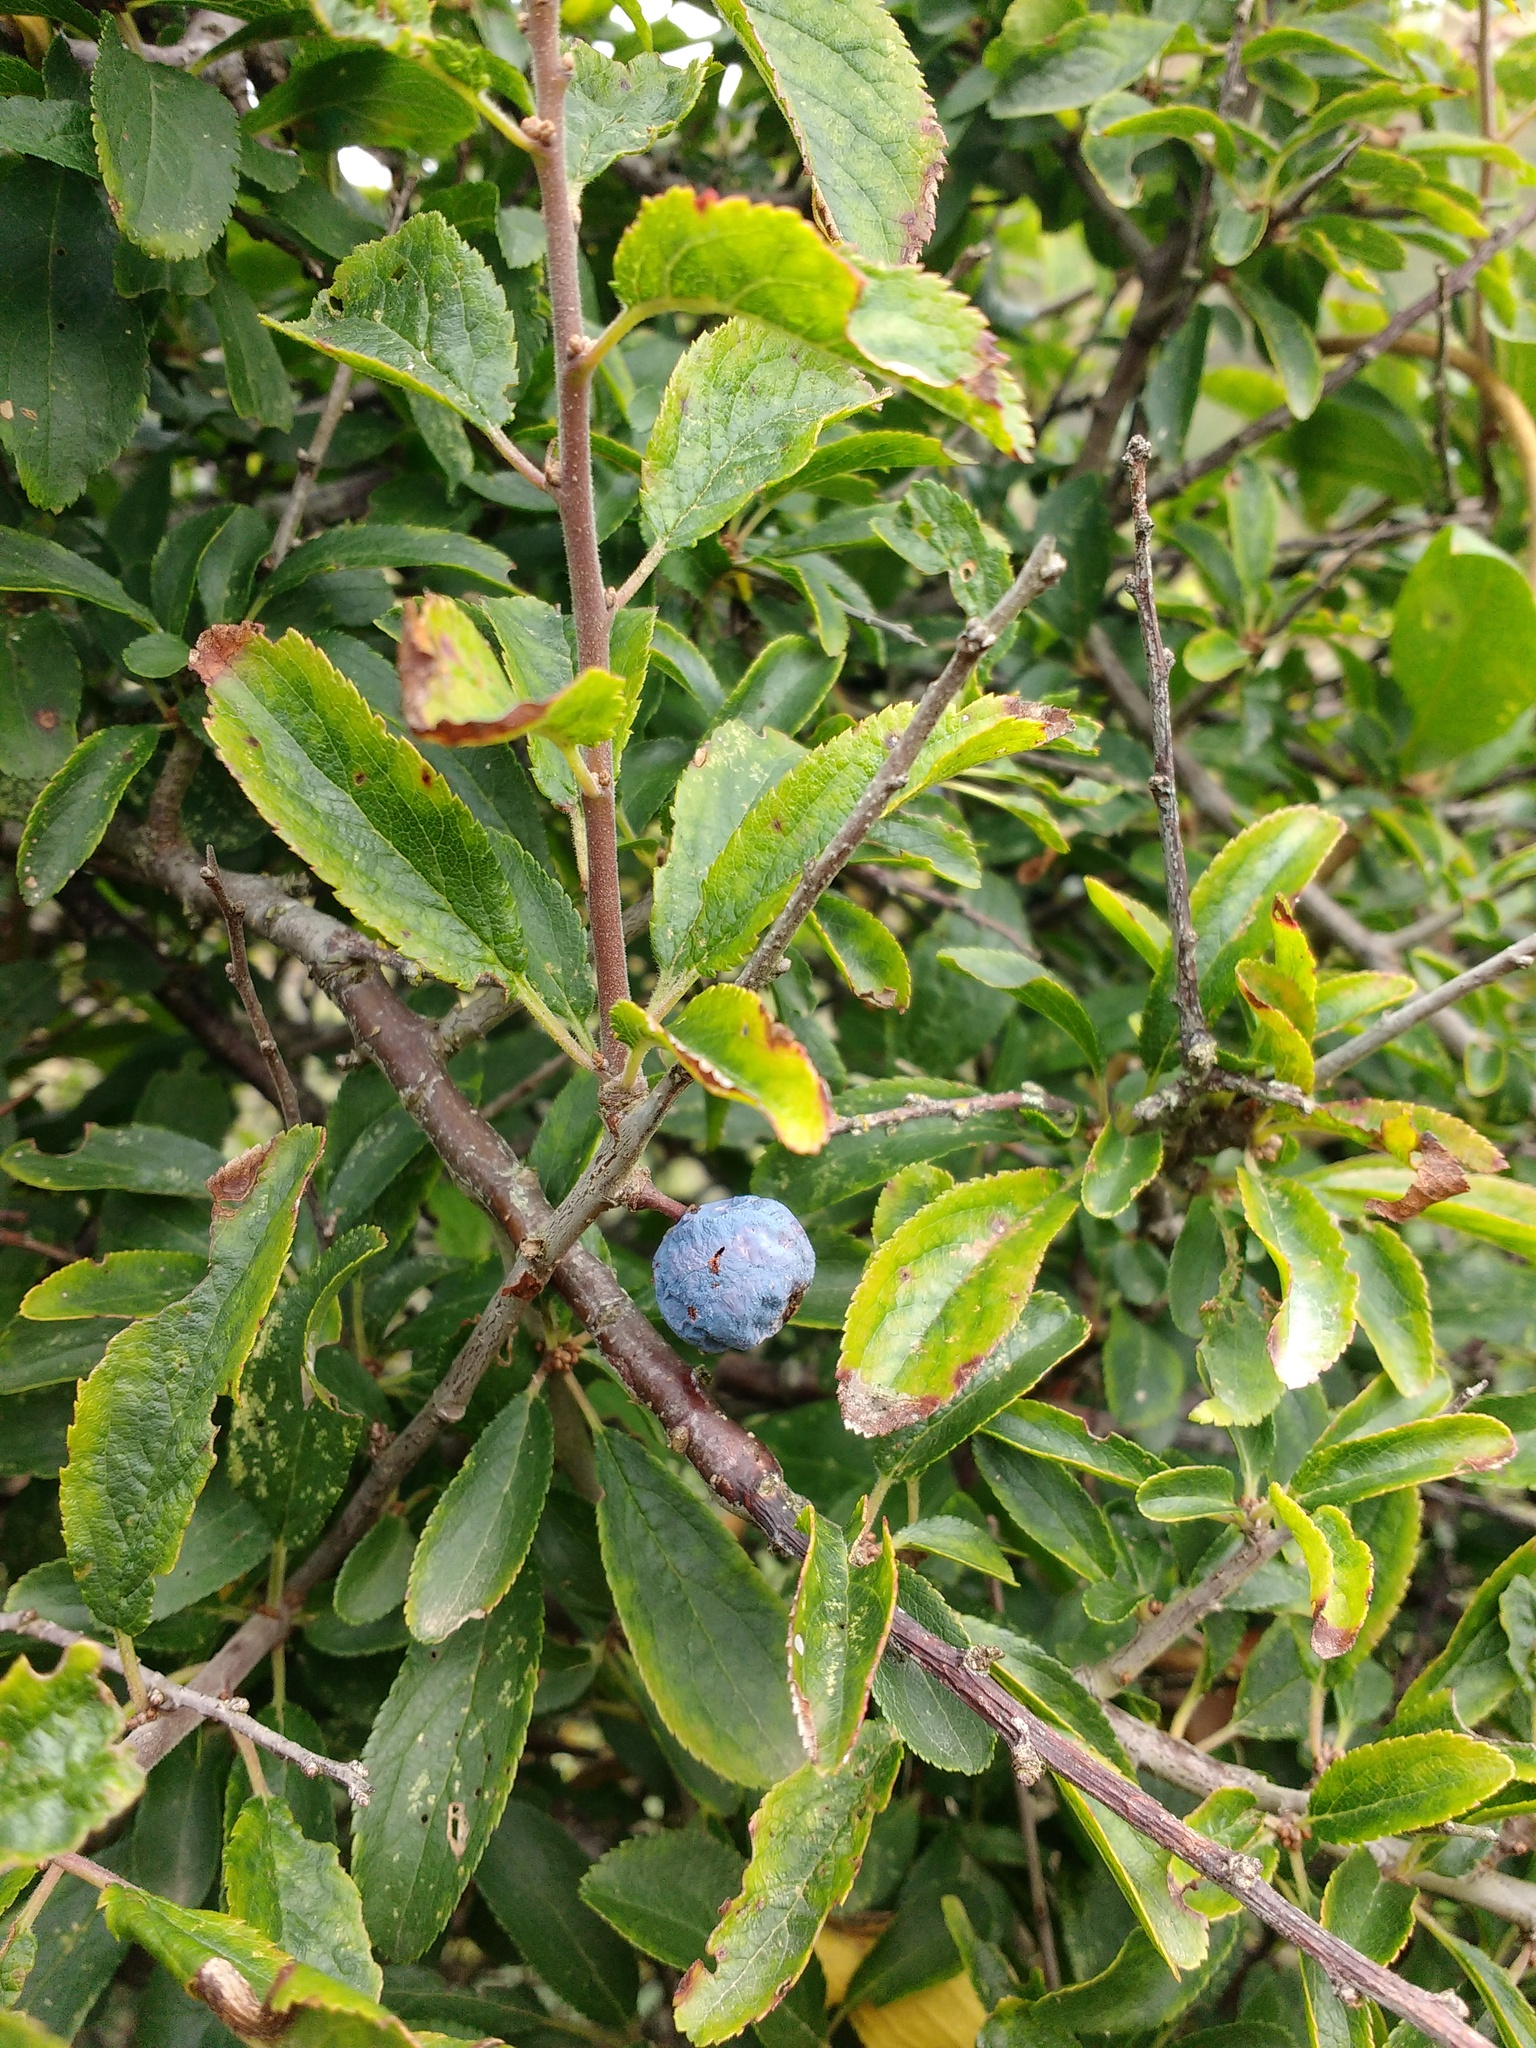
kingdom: Plantae
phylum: Tracheophyta
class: Magnoliopsida
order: Rosales
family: Rosaceae
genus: Prunus
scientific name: Prunus spinosa
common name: Blackthorn
